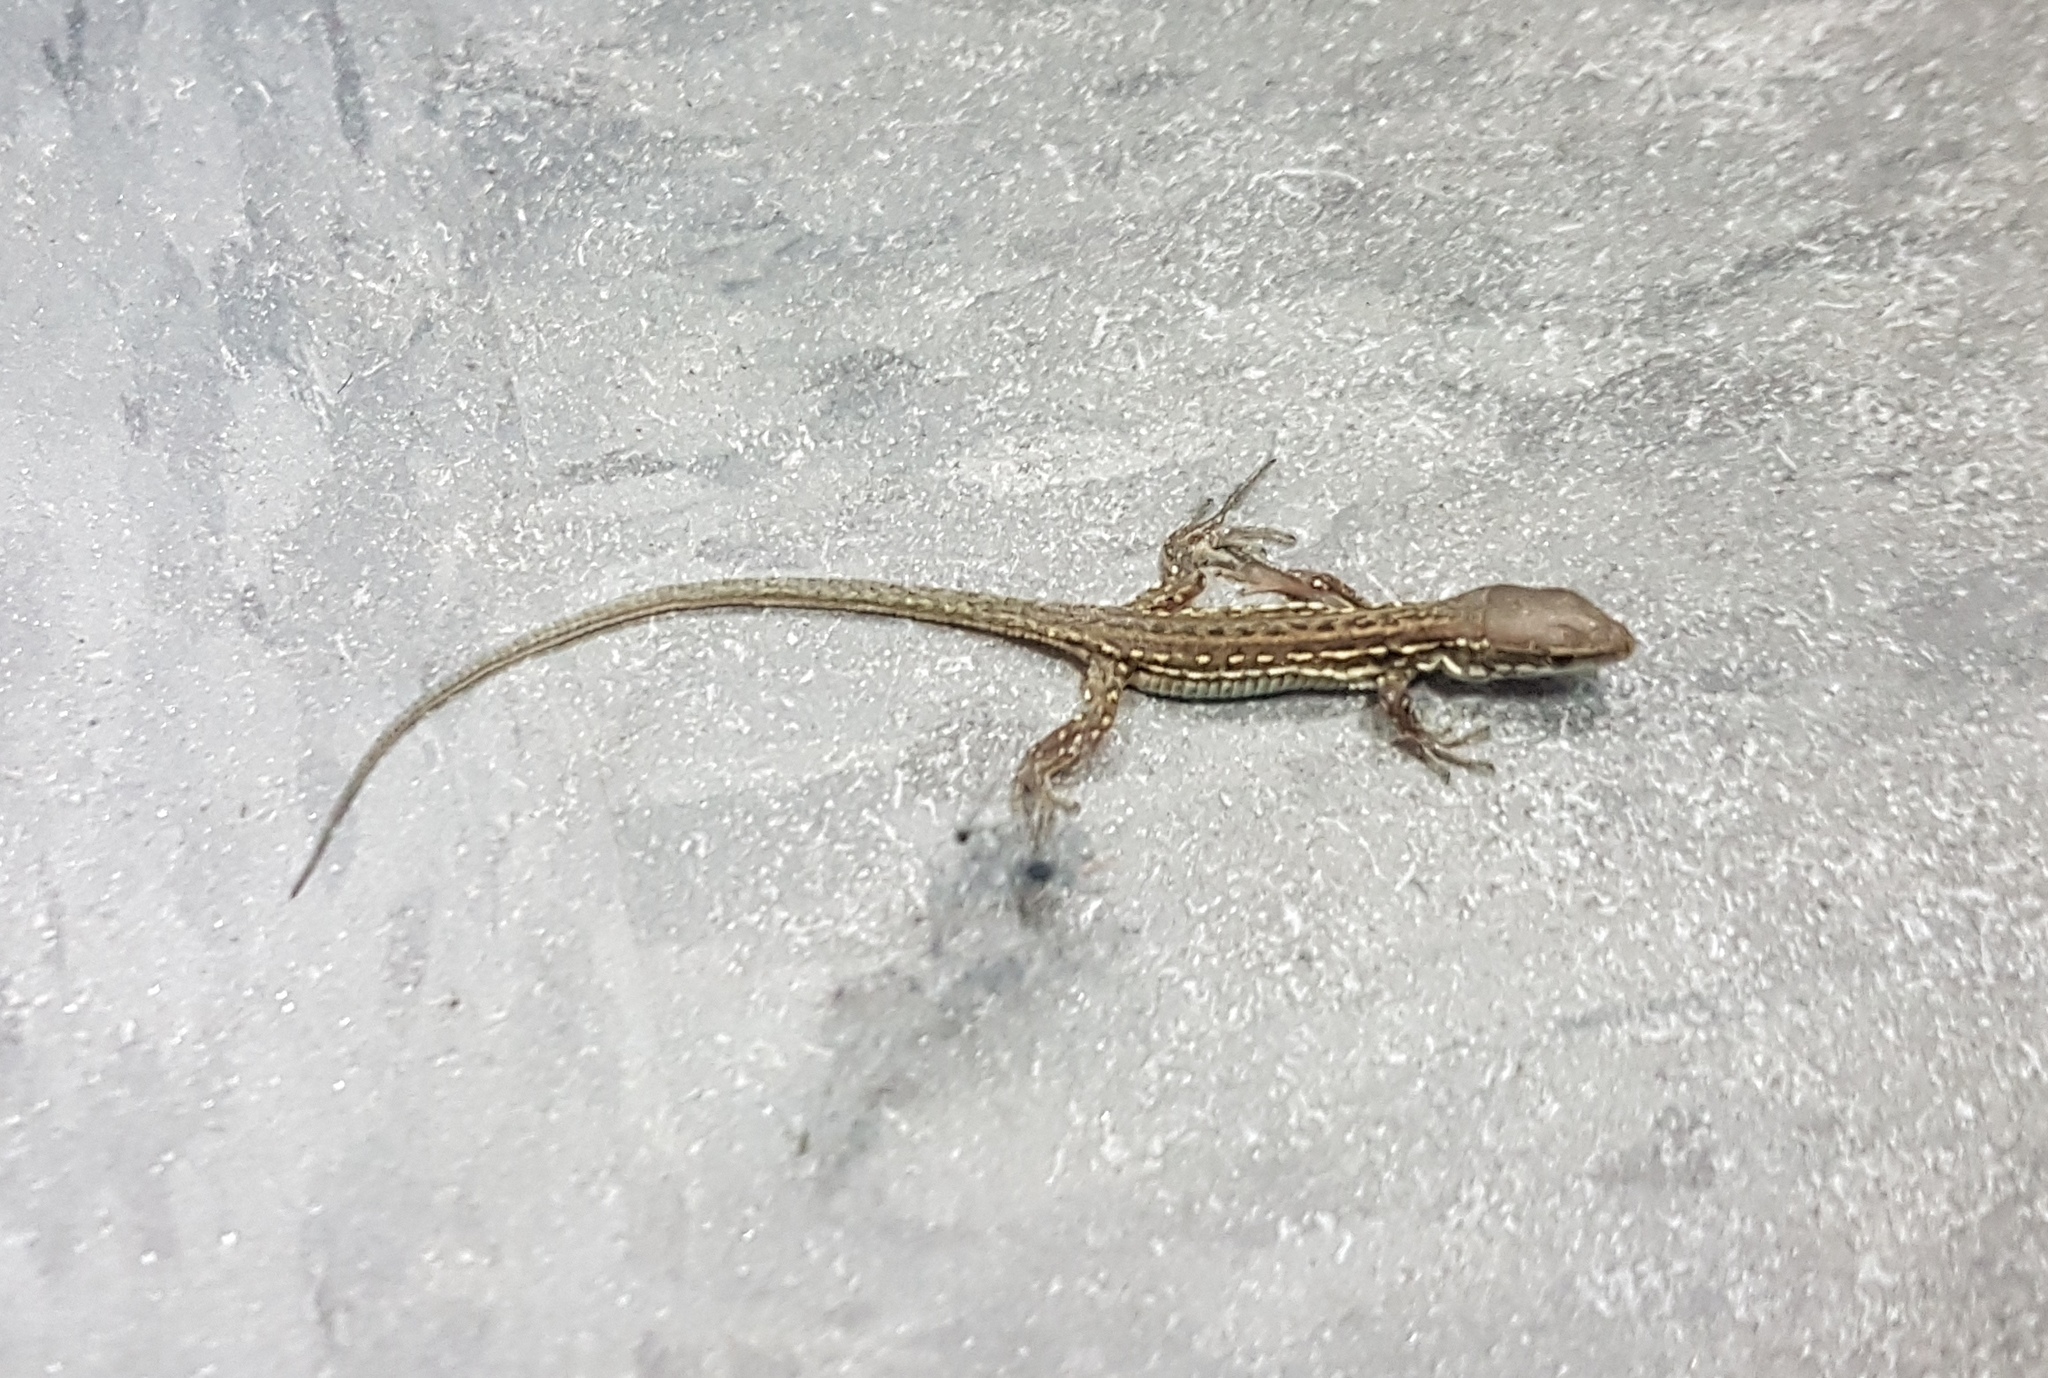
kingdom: Animalia
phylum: Chordata
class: Squamata
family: Lacertidae
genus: Podarcis
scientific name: Podarcis siculus
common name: Italian wall lizard
